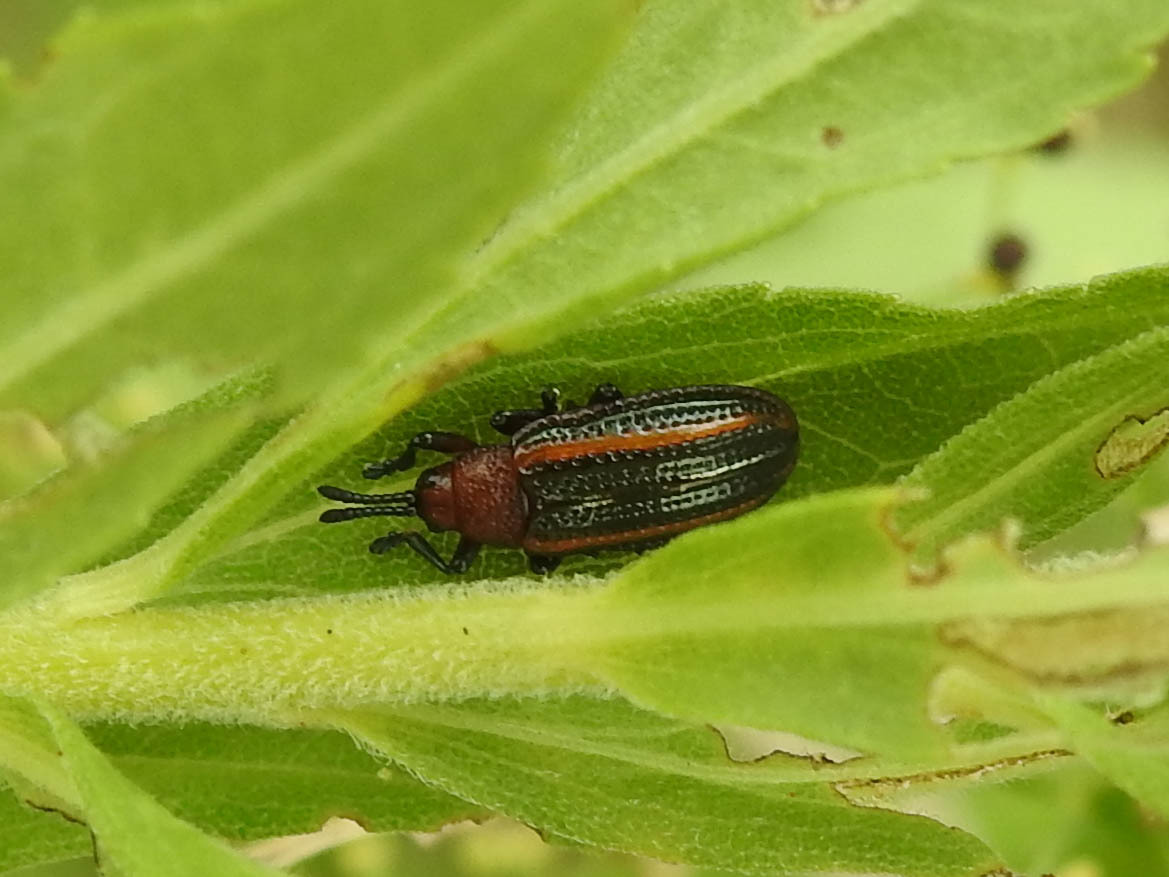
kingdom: Animalia
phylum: Arthropoda
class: Insecta
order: Coleoptera
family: Chrysomelidae
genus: Microrhopala
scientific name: Microrhopala vittata
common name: Goldenrod leaf miner beetle
